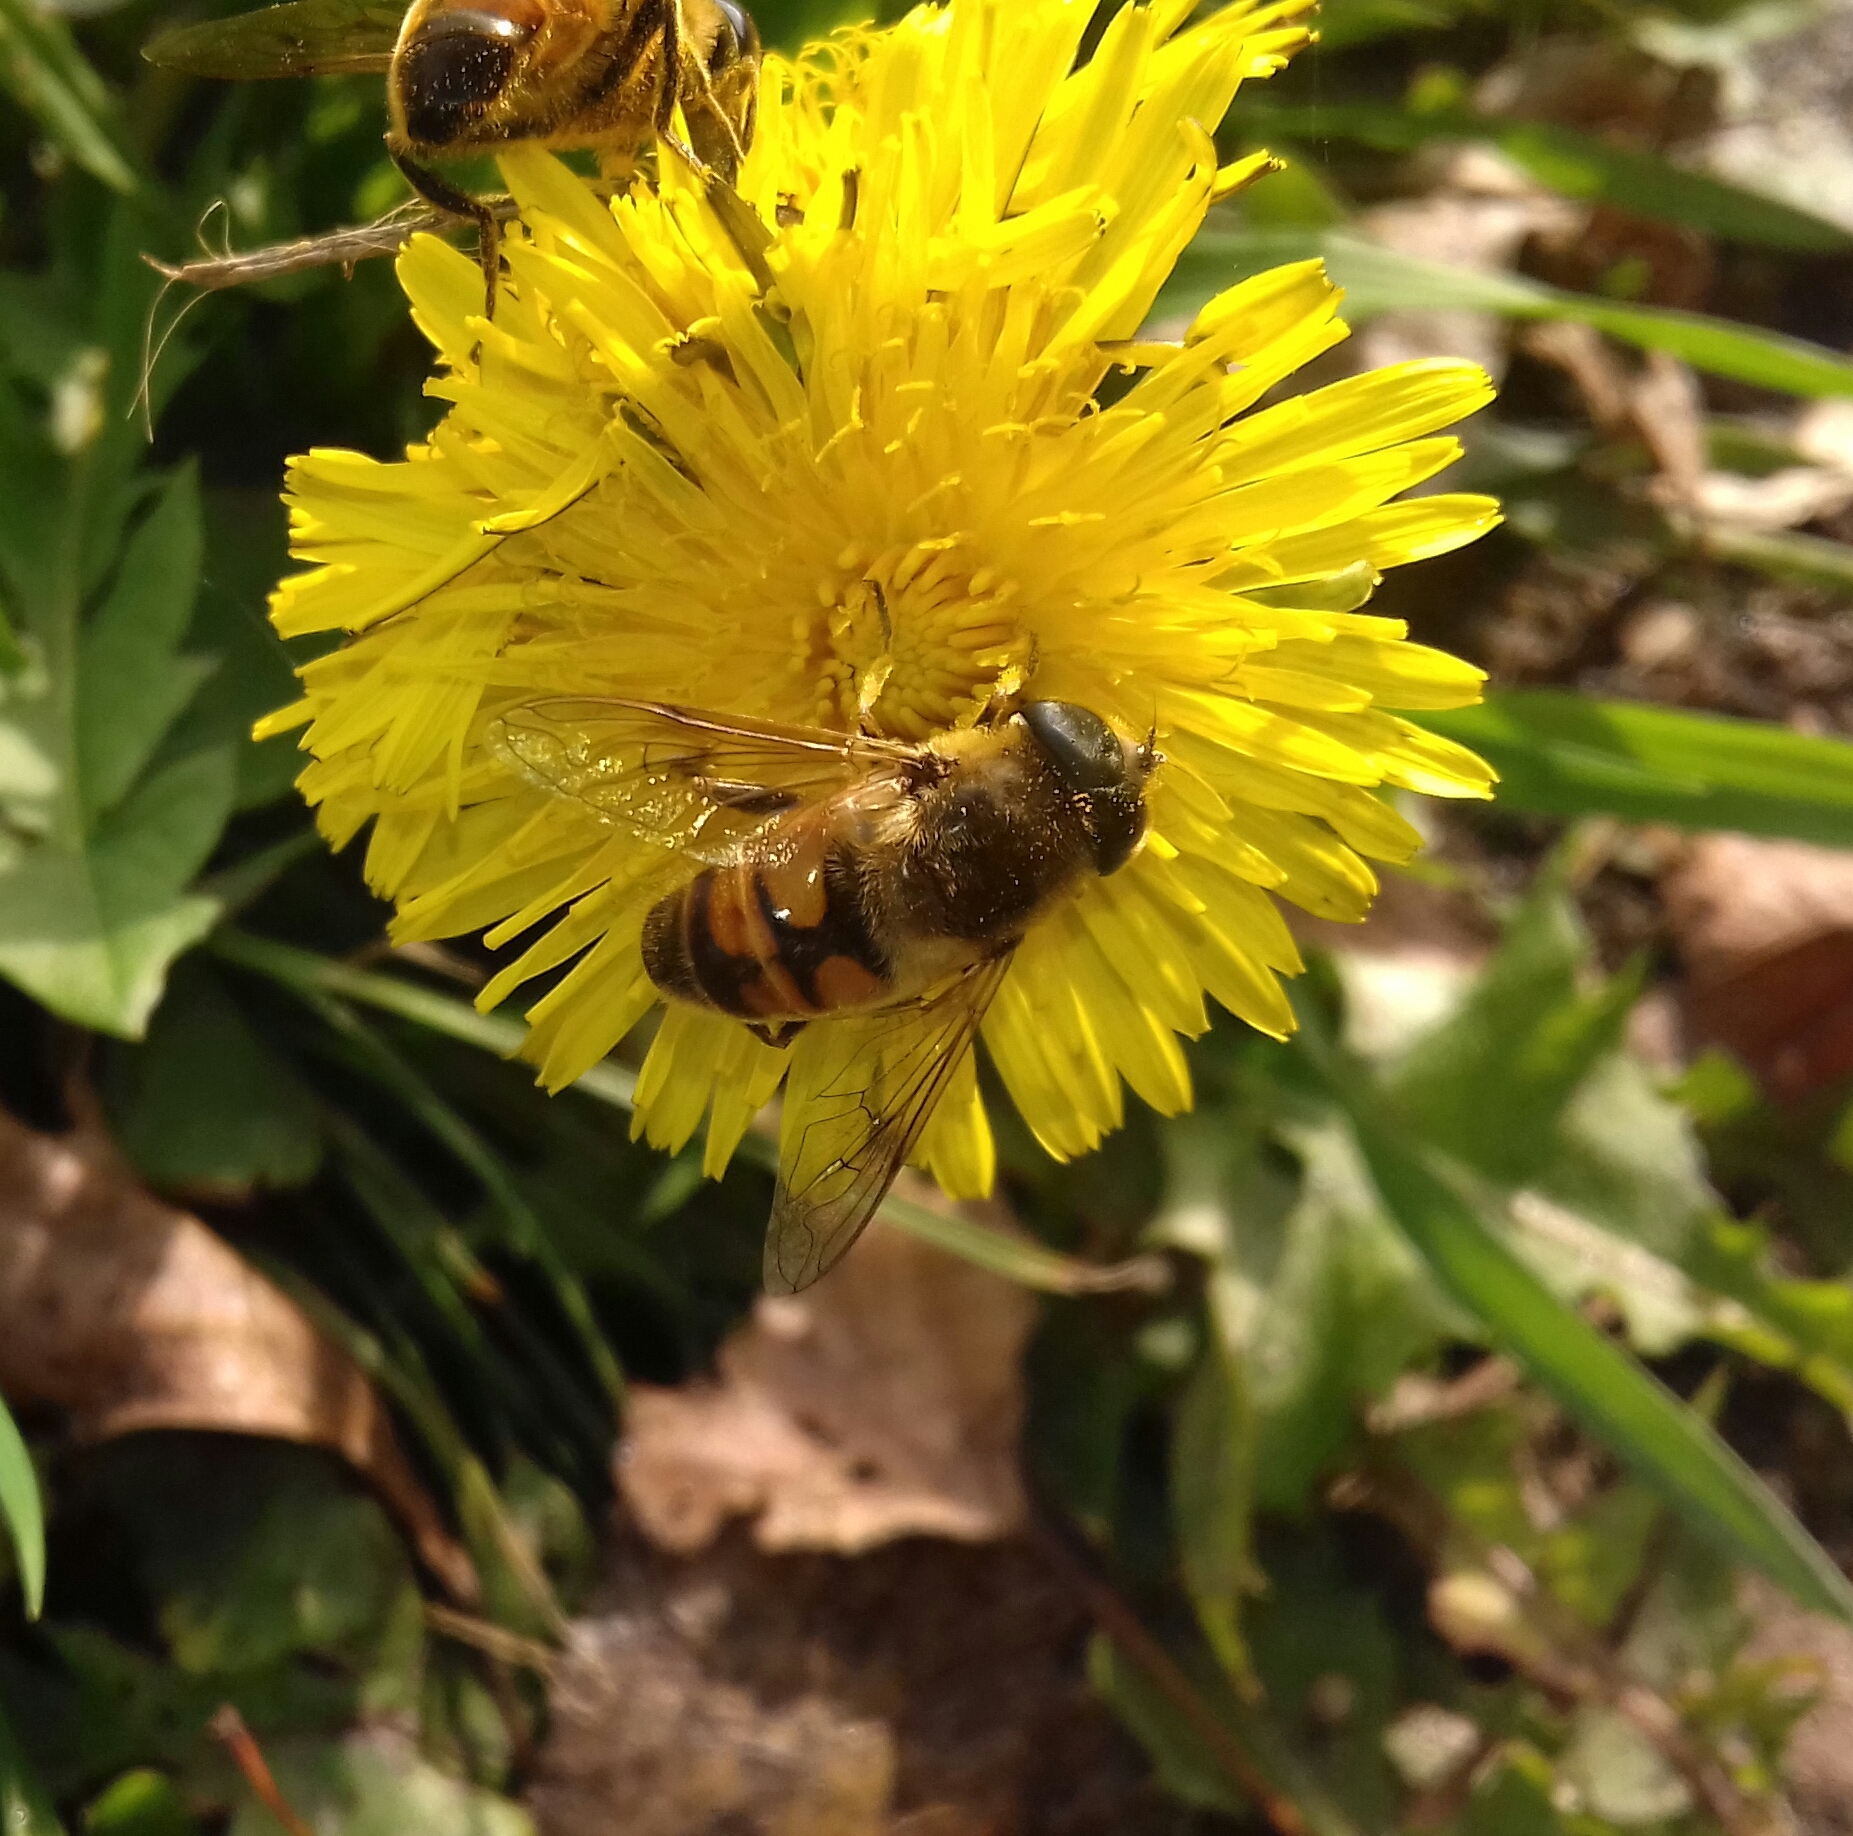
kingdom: Animalia
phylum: Arthropoda
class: Insecta
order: Diptera
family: Syrphidae
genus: Eristalis
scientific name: Eristalis tenax
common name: Drone fly
